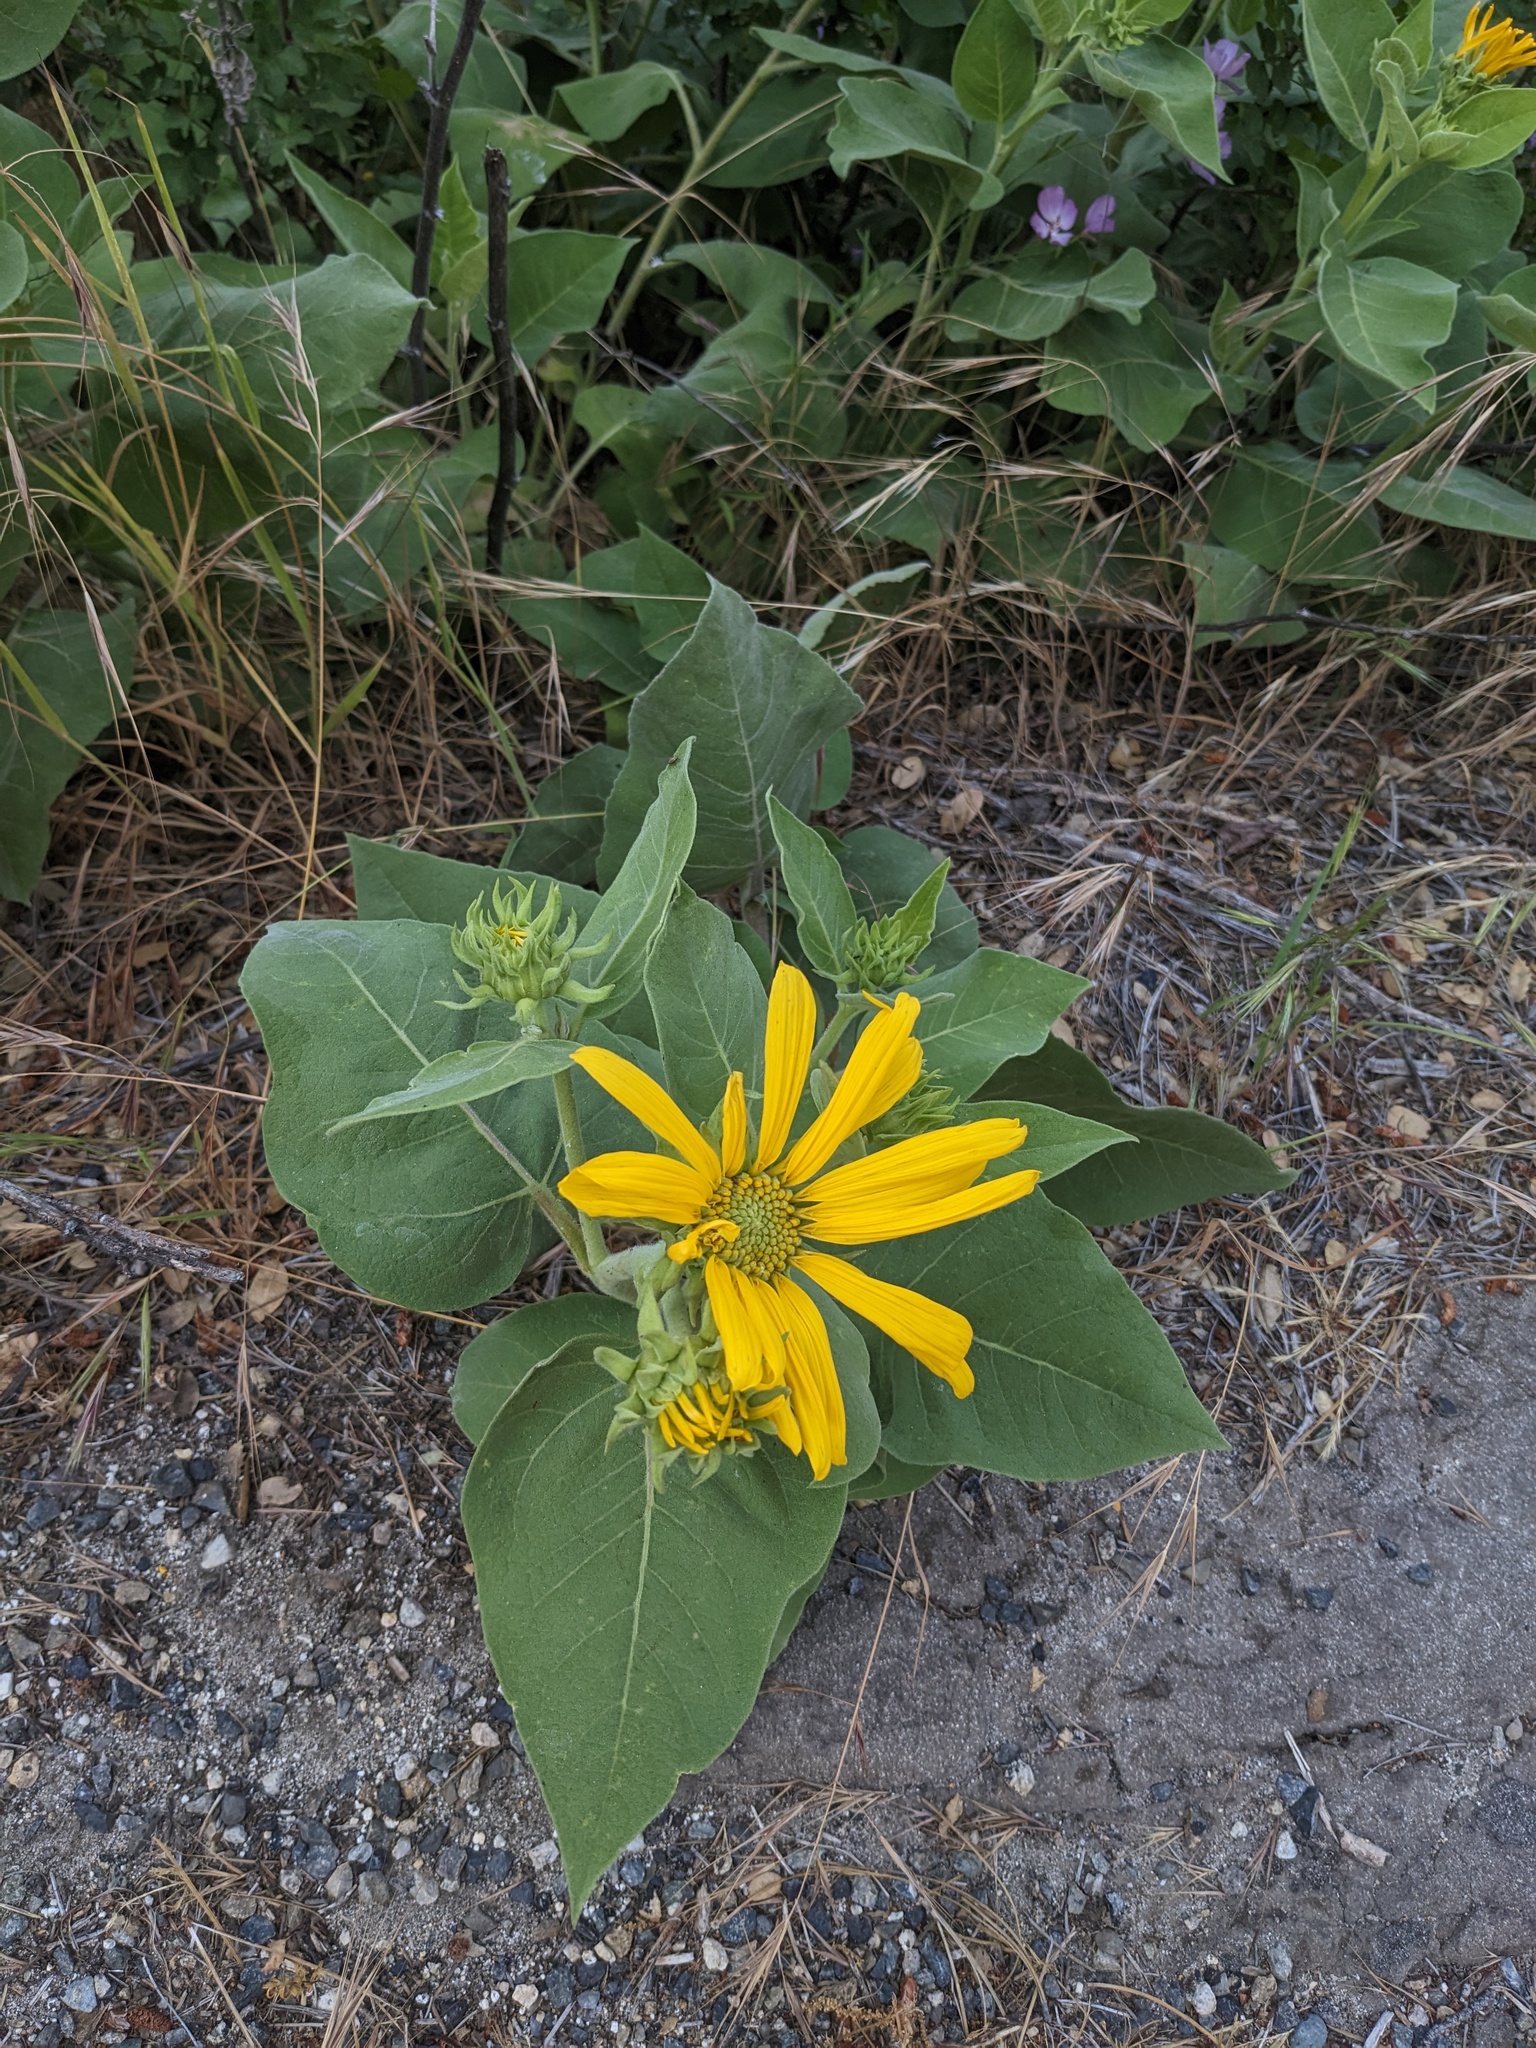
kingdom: Plantae
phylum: Tracheophyta
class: Magnoliopsida
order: Asterales
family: Asteraceae
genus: Agnorhiza
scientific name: Agnorhiza elata
